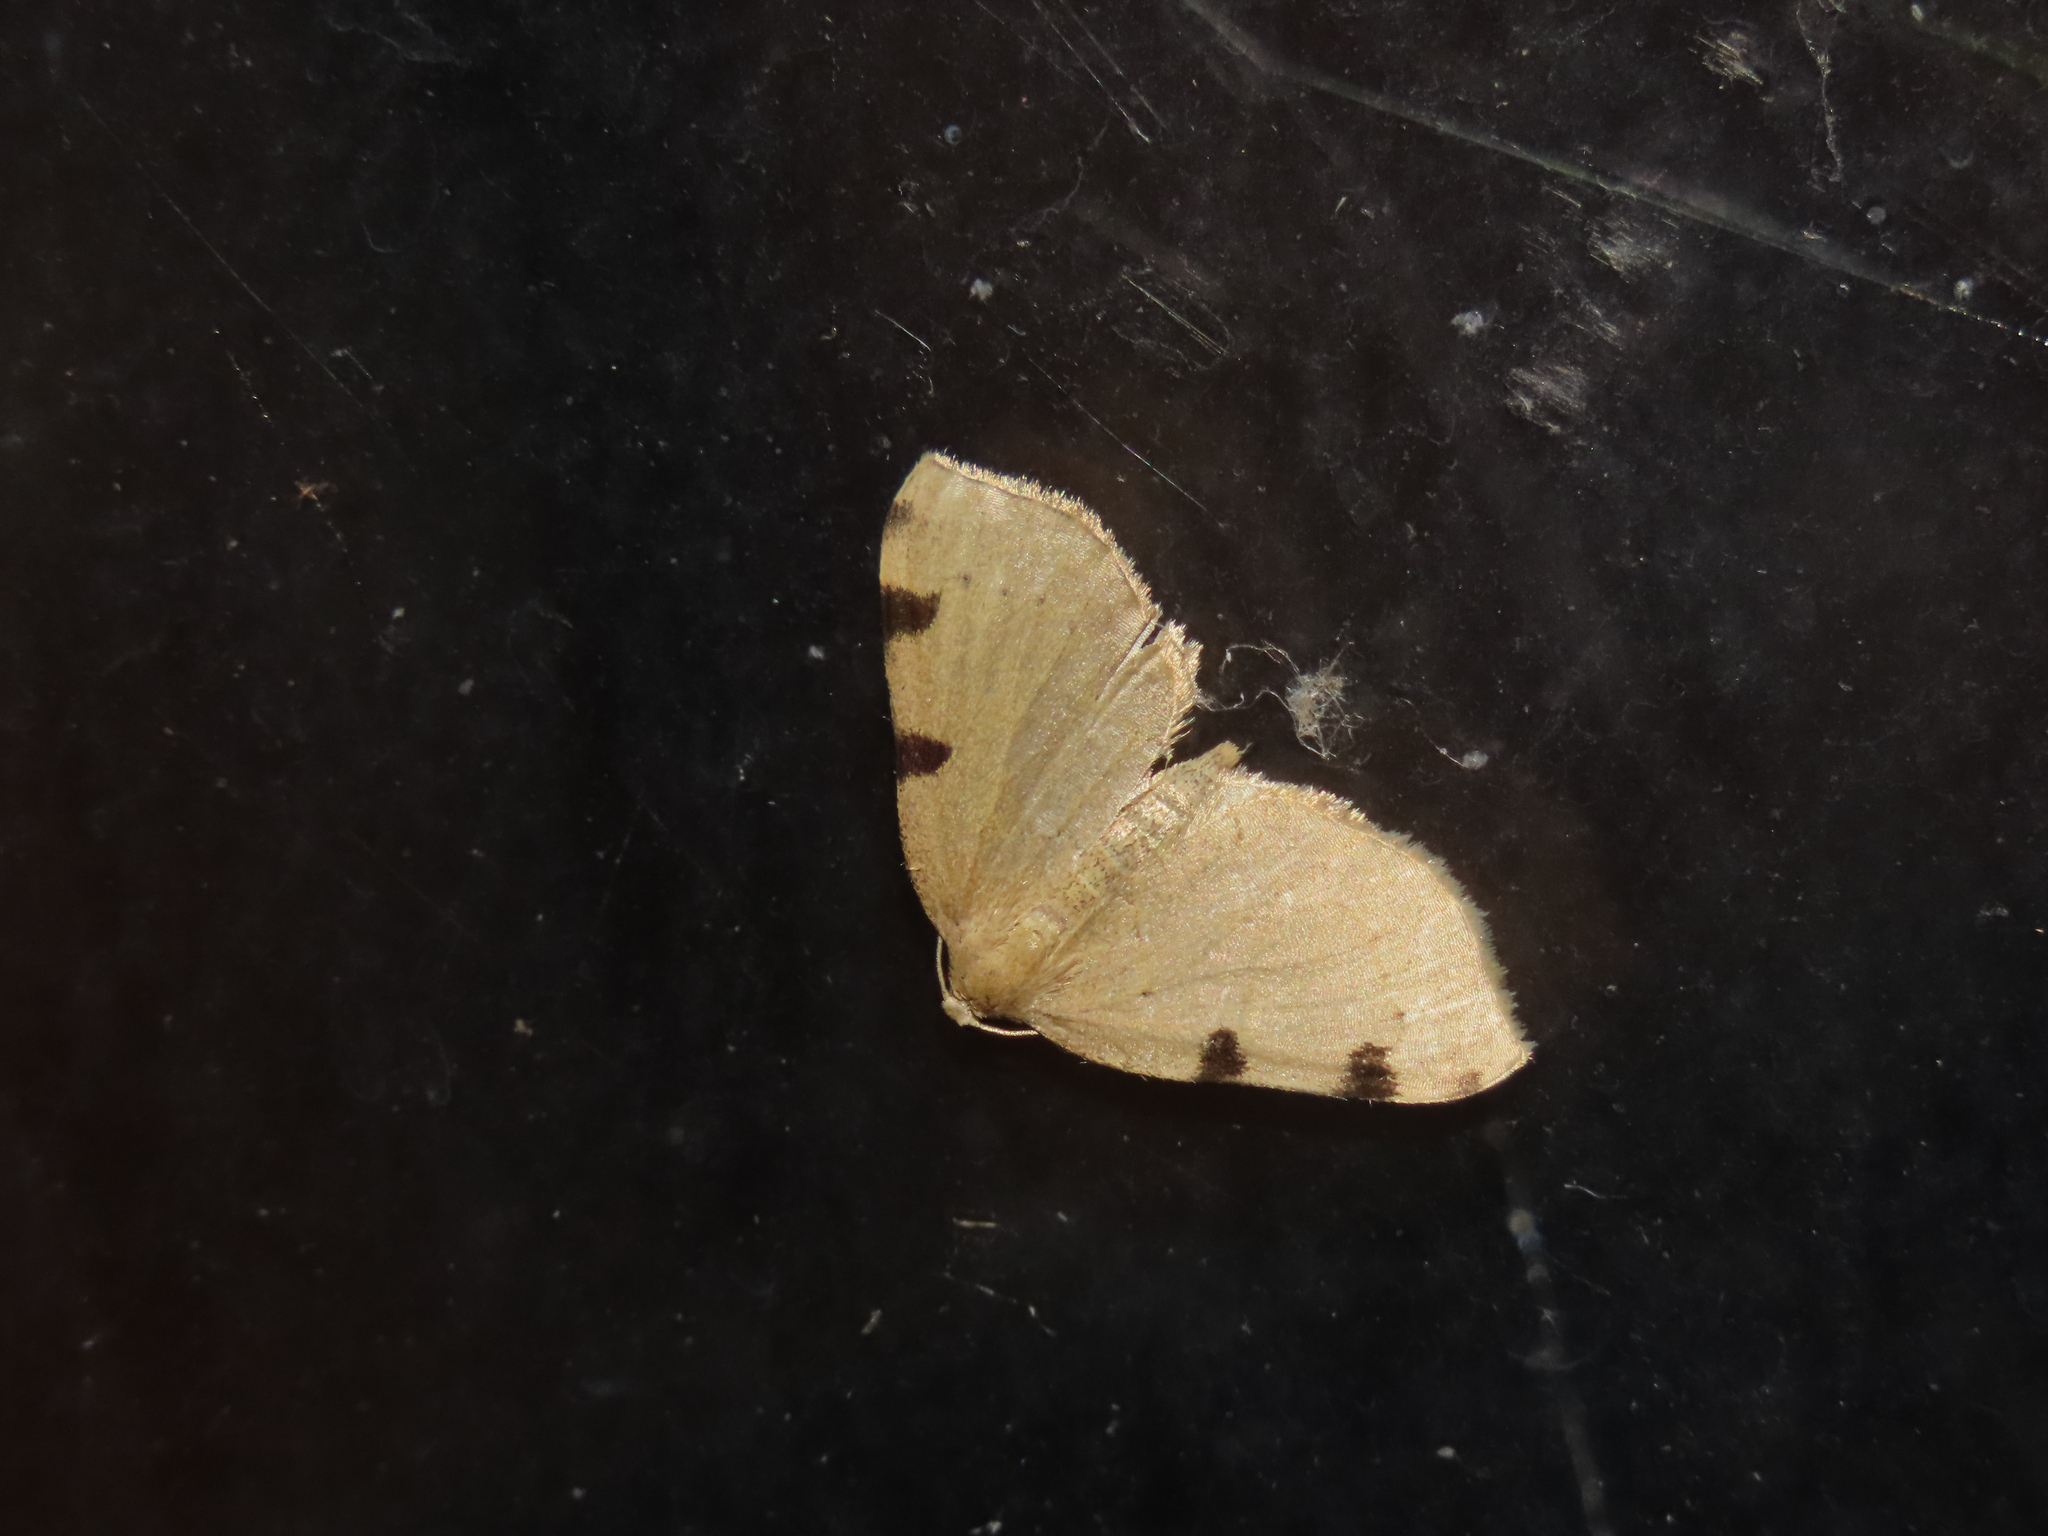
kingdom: Animalia
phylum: Arthropoda
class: Insecta
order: Lepidoptera
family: Geometridae
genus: Heterophleps
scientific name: Heterophleps triguttaria
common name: Three-spotted fillip
